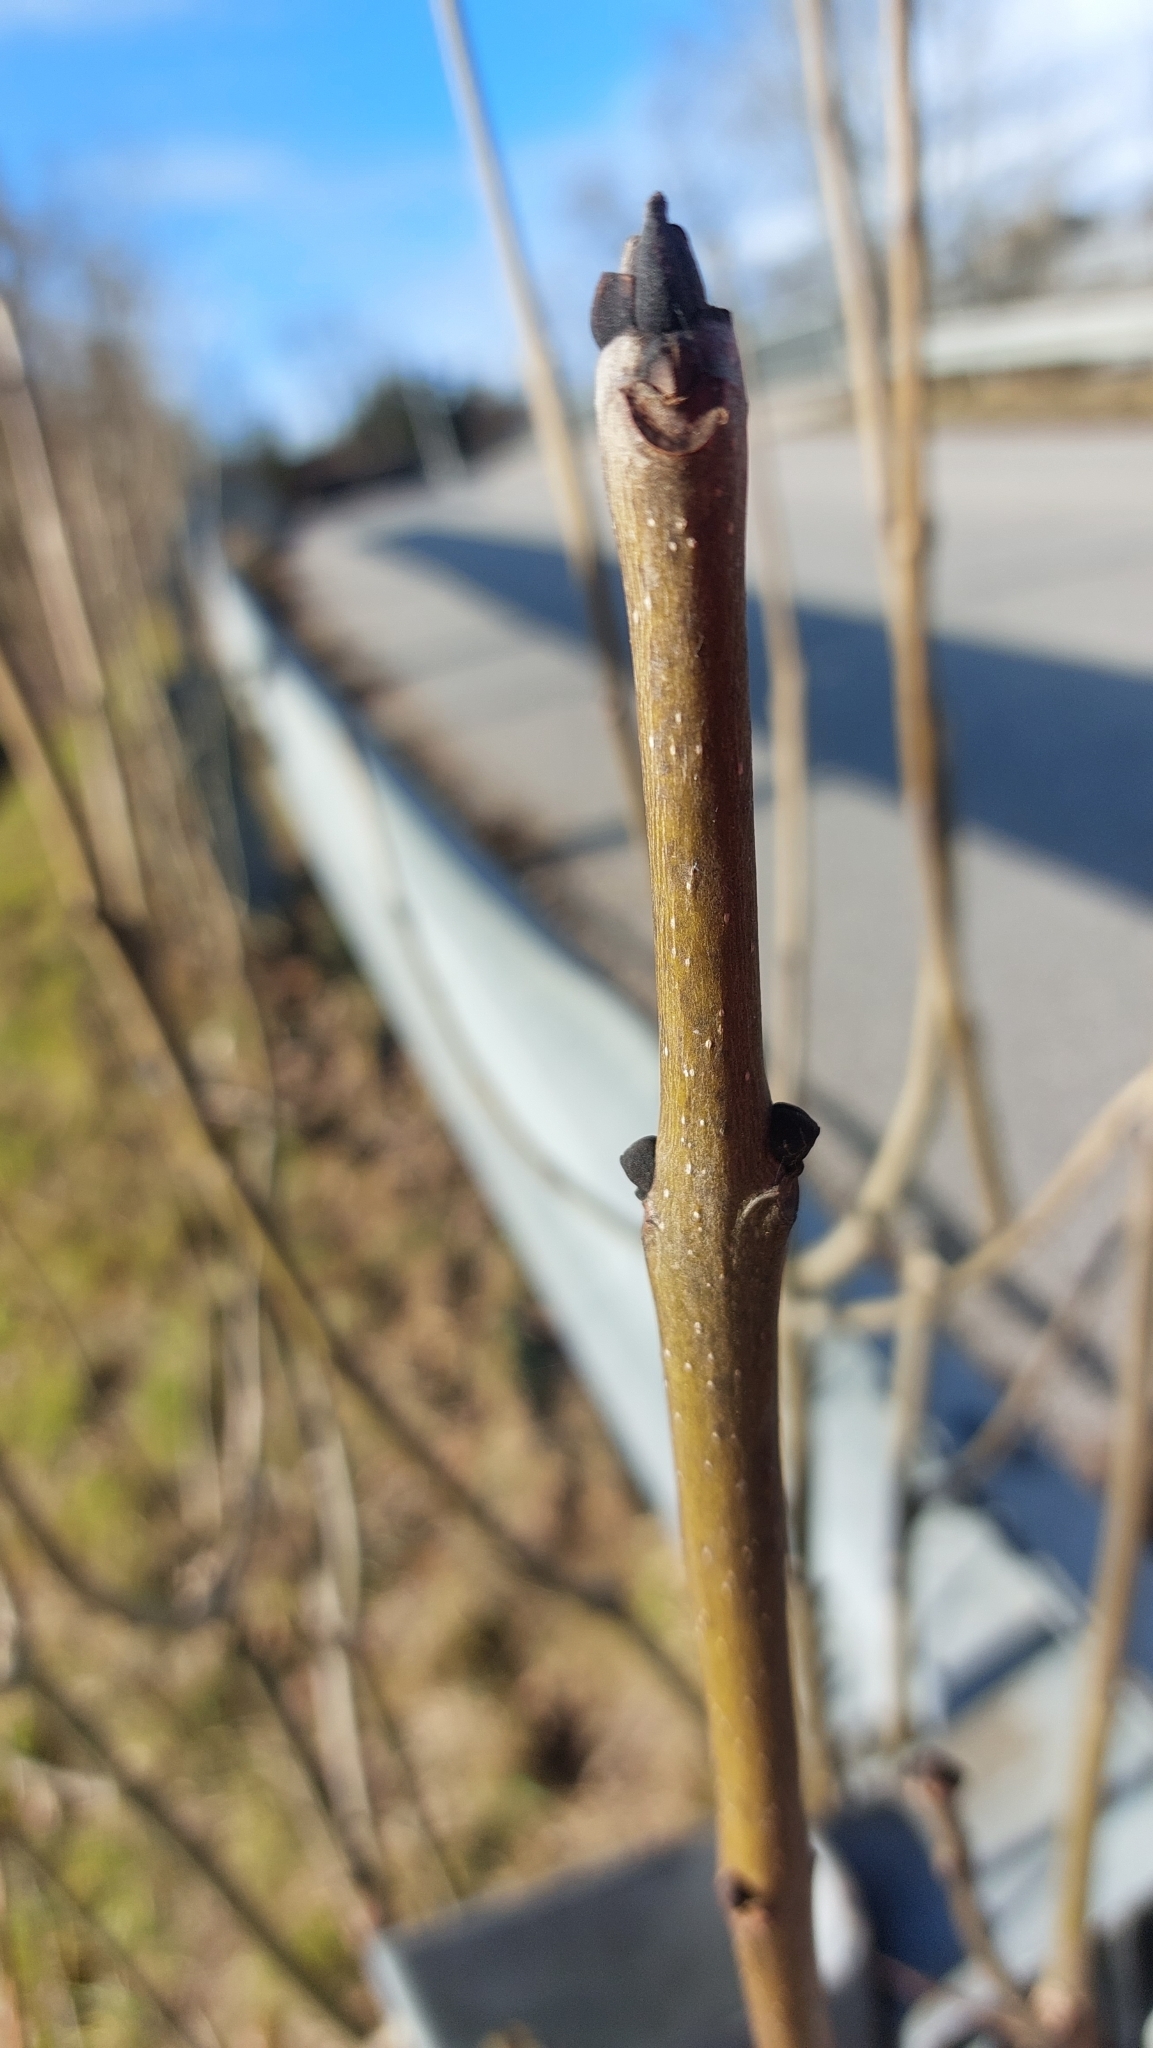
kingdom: Plantae
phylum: Tracheophyta
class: Magnoliopsida
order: Lamiales
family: Oleaceae
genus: Fraxinus
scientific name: Fraxinus excelsior
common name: European ash
